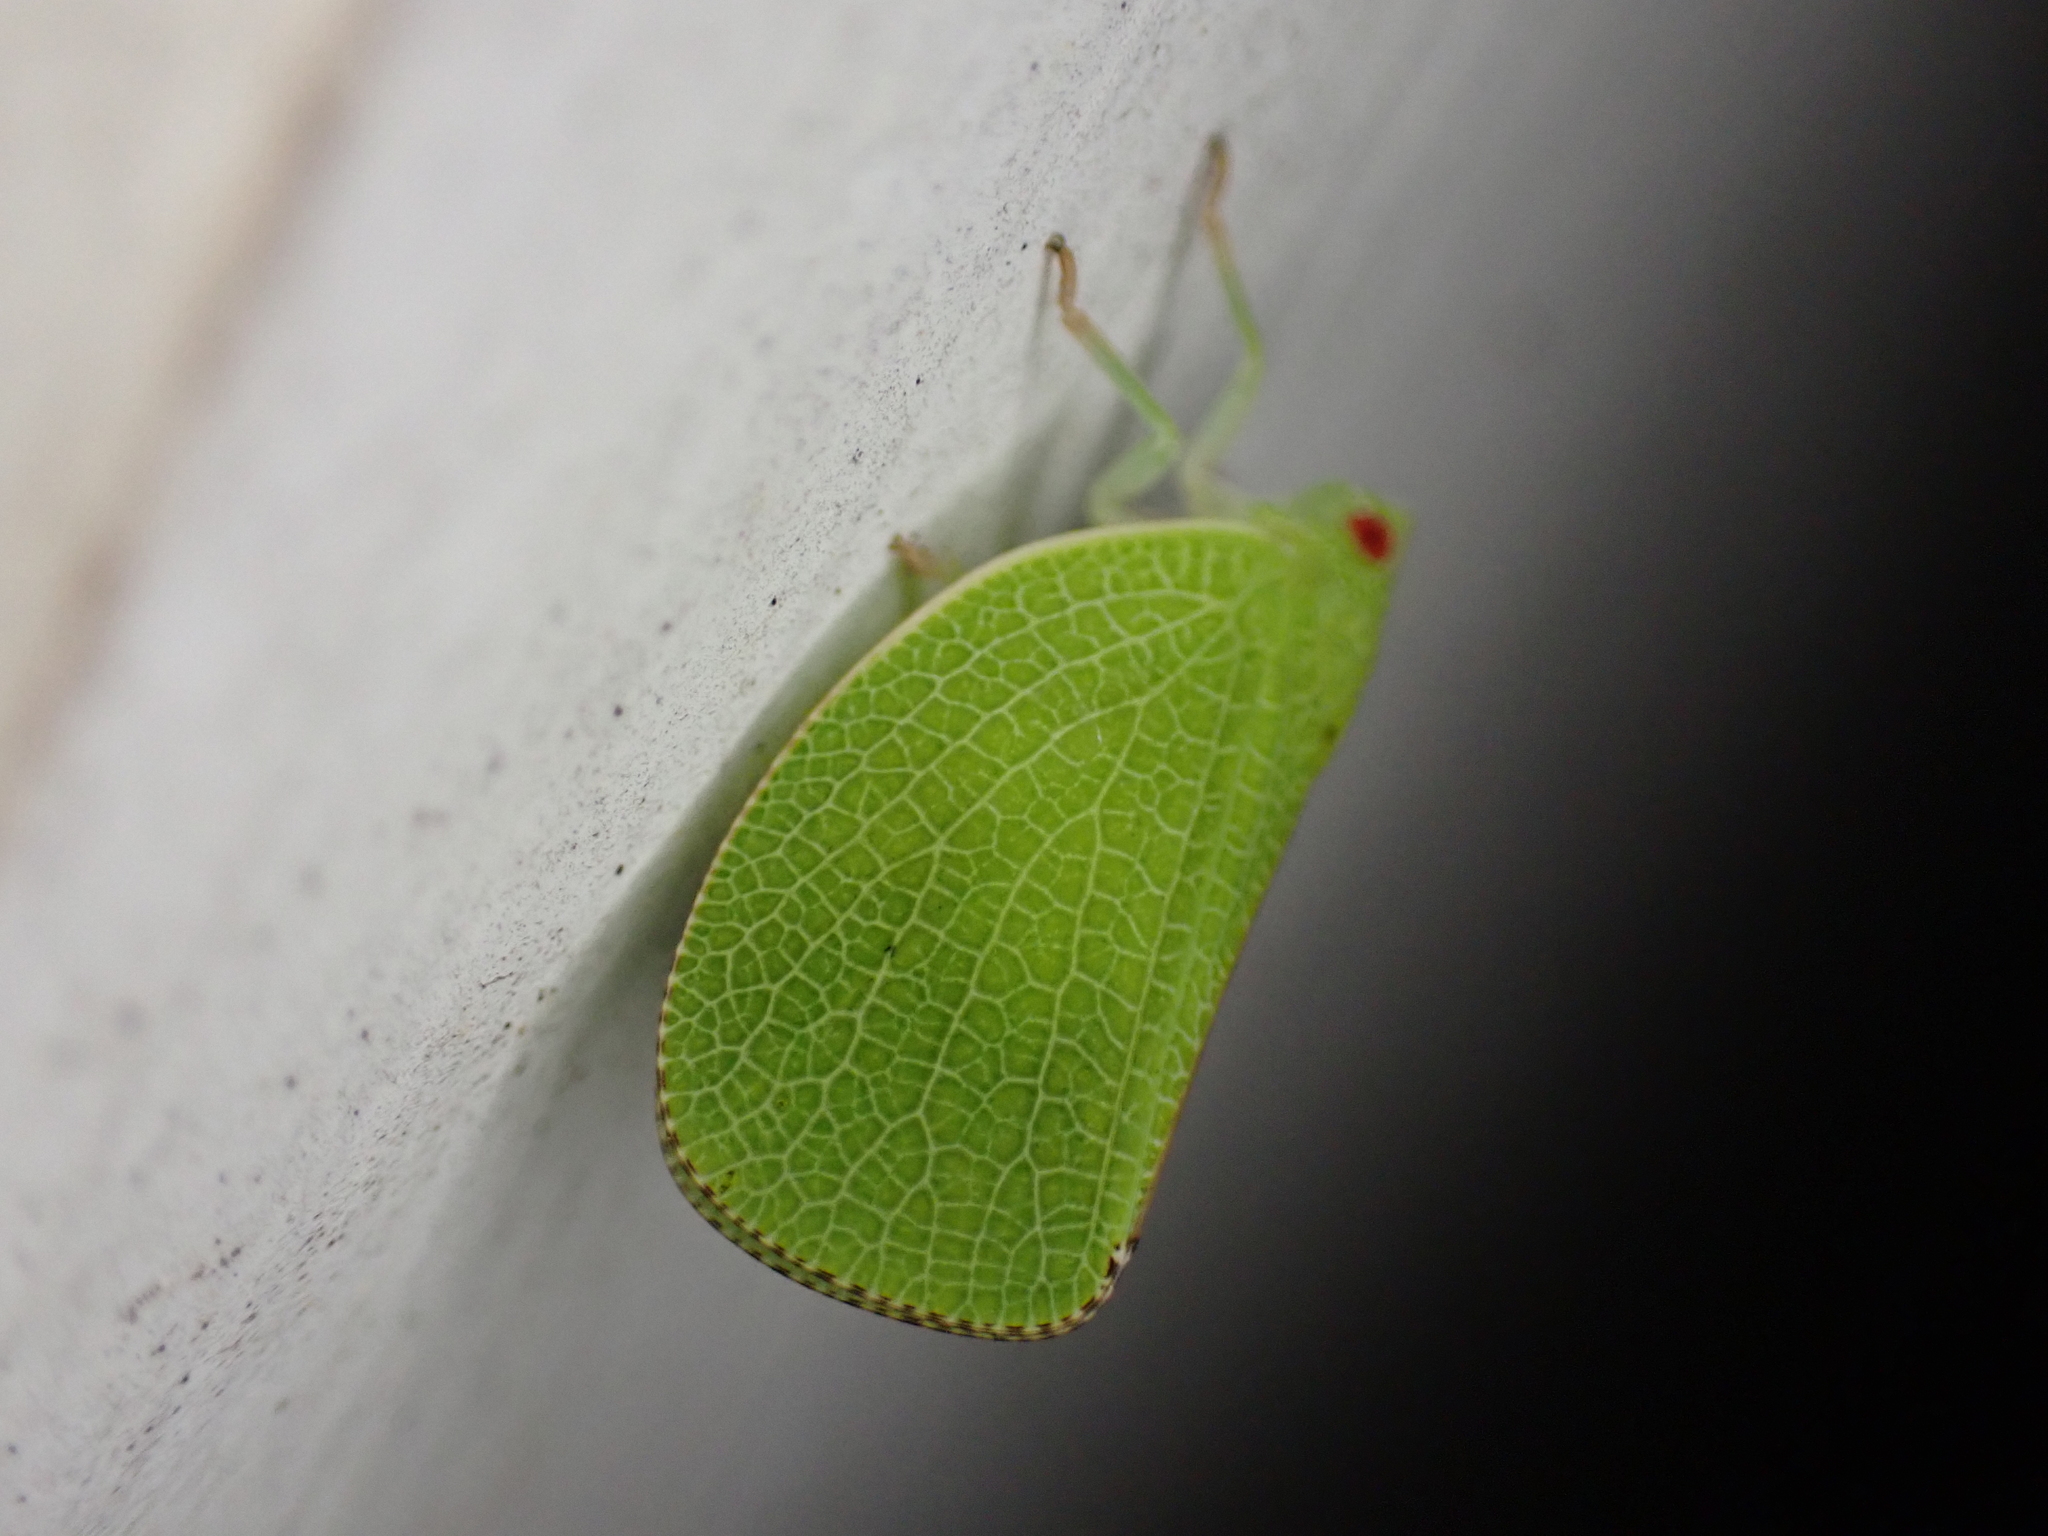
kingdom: Animalia
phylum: Arthropoda
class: Insecta
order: Hemiptera
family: Acanaloniidae
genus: Acanalonia
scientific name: Acanalonia conica
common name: Green cone-headed planthopper
